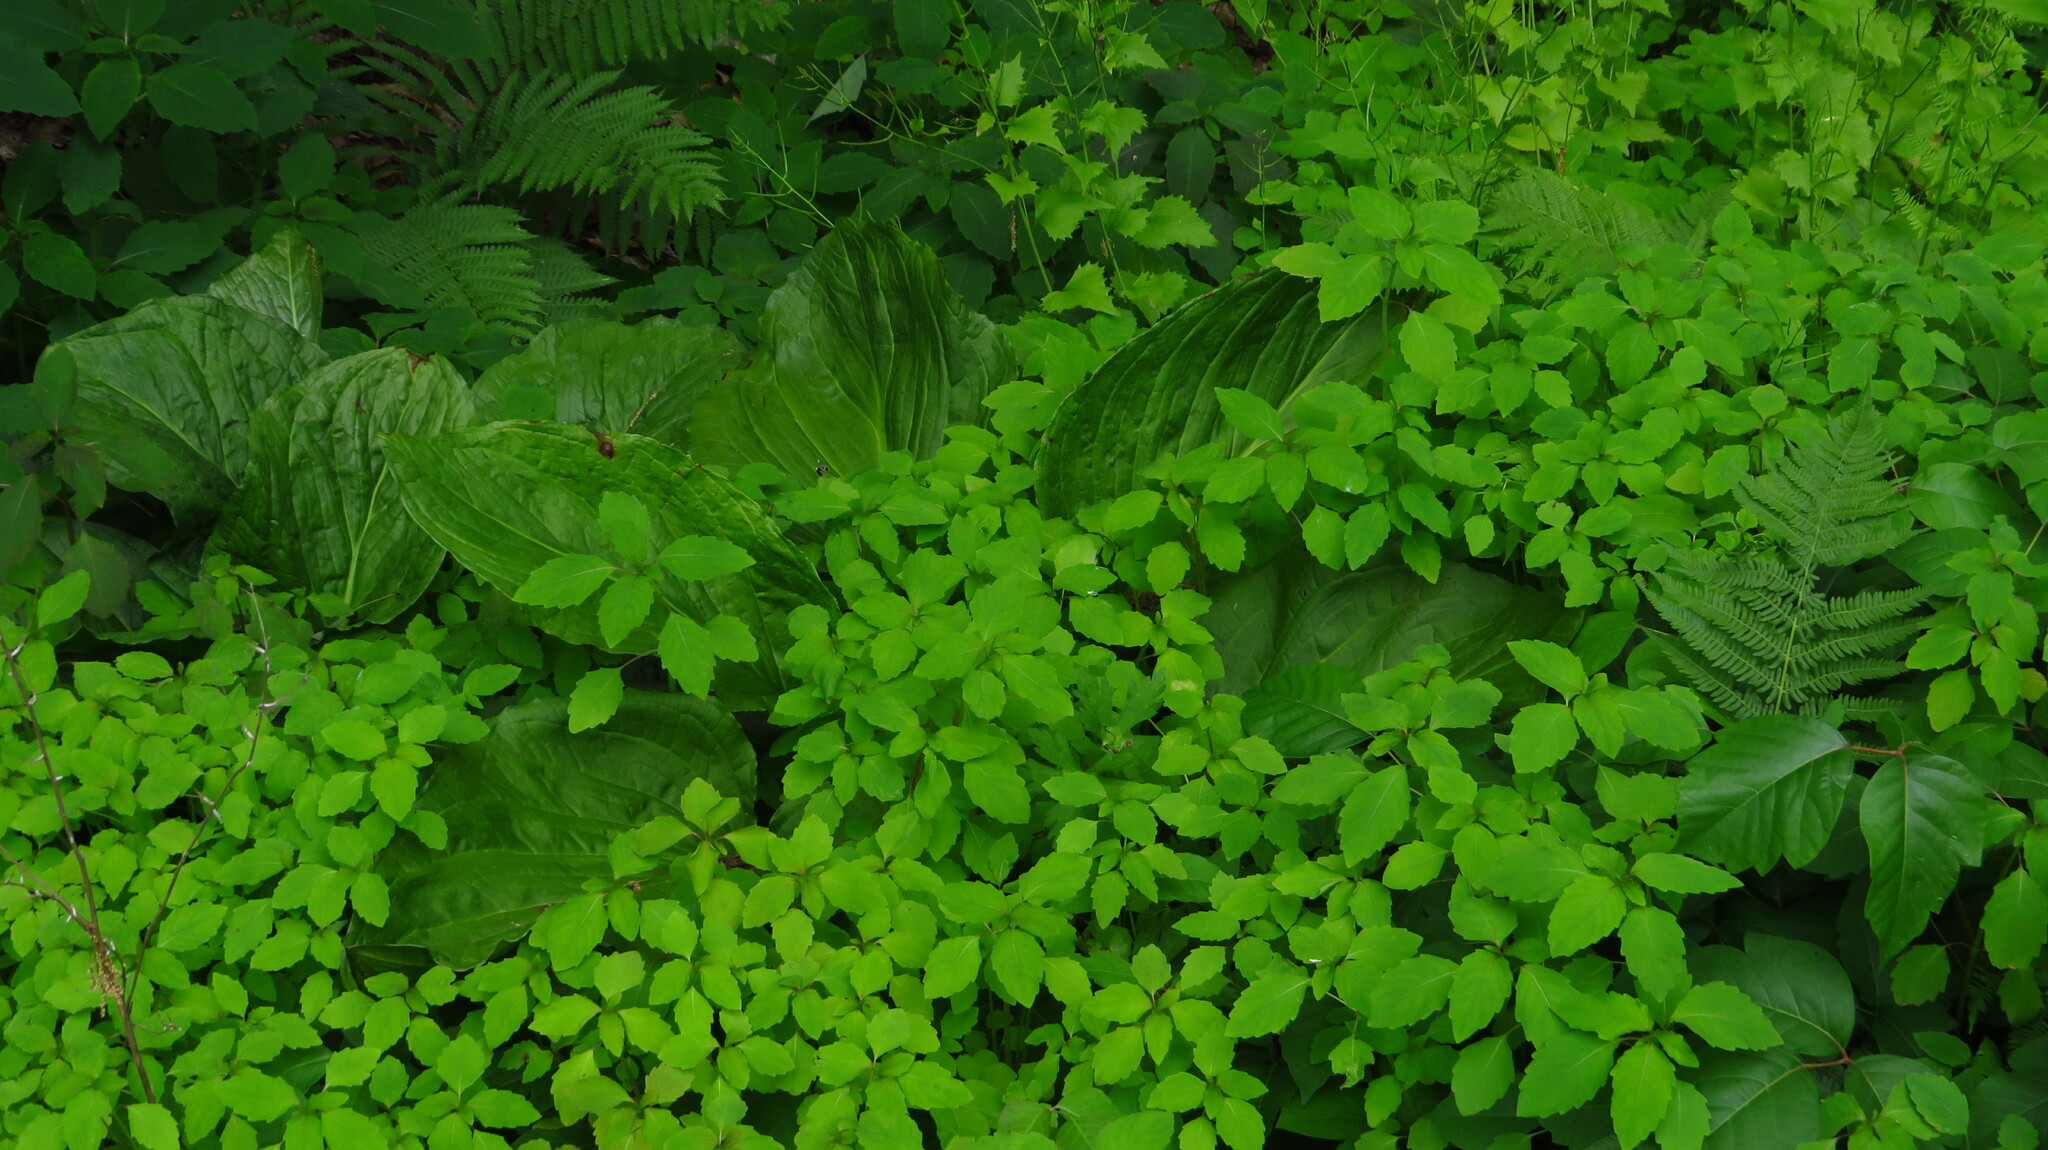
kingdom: Plantae
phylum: Tracheophyta
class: Liliopsida
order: Alismatales
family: Araceae
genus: Symplocarpus
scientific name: Symplocarpus foetidus
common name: Eastern skunk cabbage
